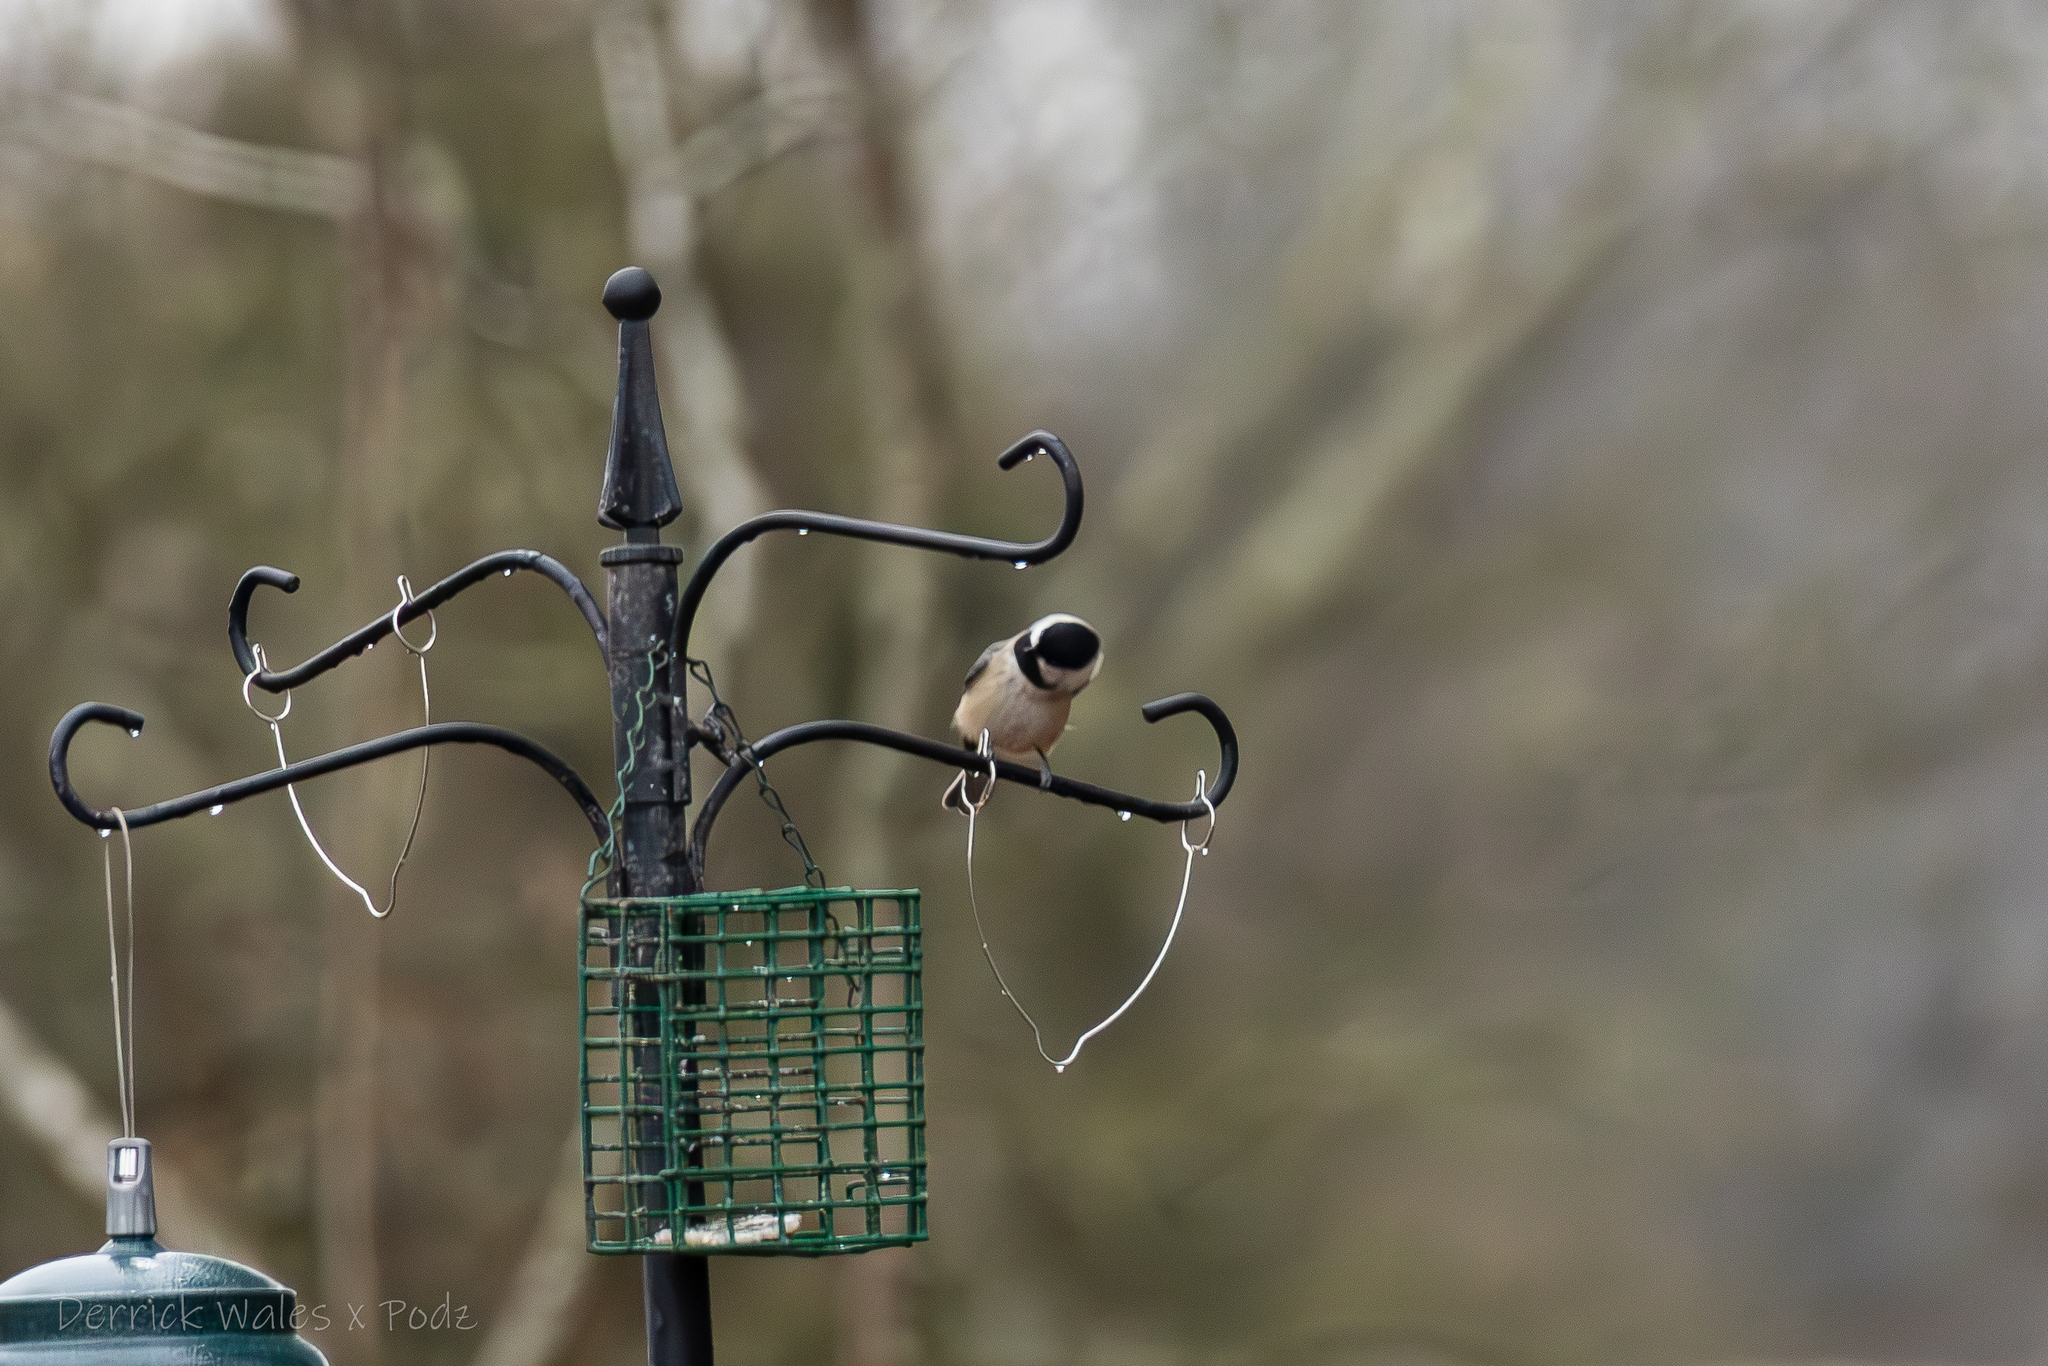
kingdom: Animalia
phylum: Chordata
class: Aves
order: Passeriformes
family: Paridae
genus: Poecile
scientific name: Poecile carolinensis
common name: Carolina chickadee
